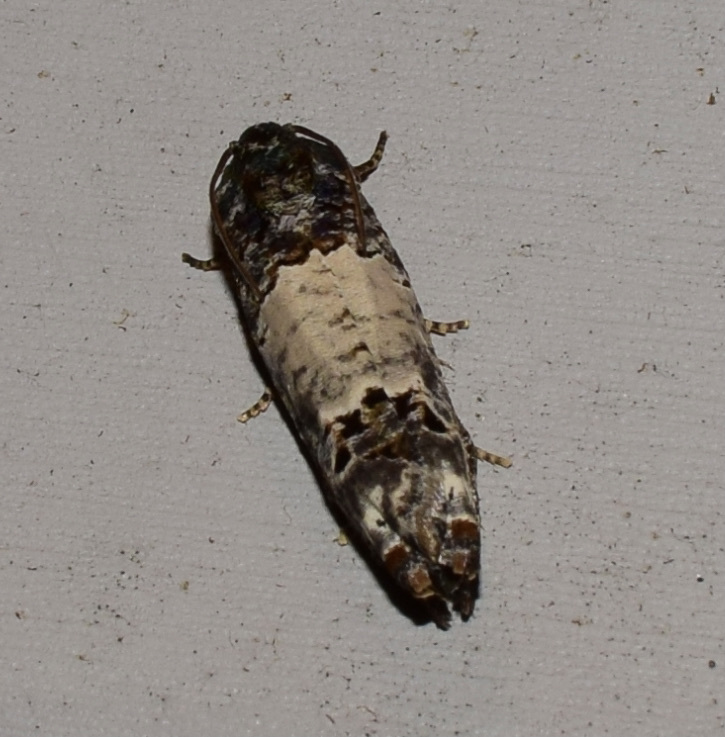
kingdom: Animalia
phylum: Arthropoda
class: Insecta
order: Lepidoptera
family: Tortricidae
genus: Epiblema
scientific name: Epiblema carolinana
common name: Gray-blotched epiblema moth
